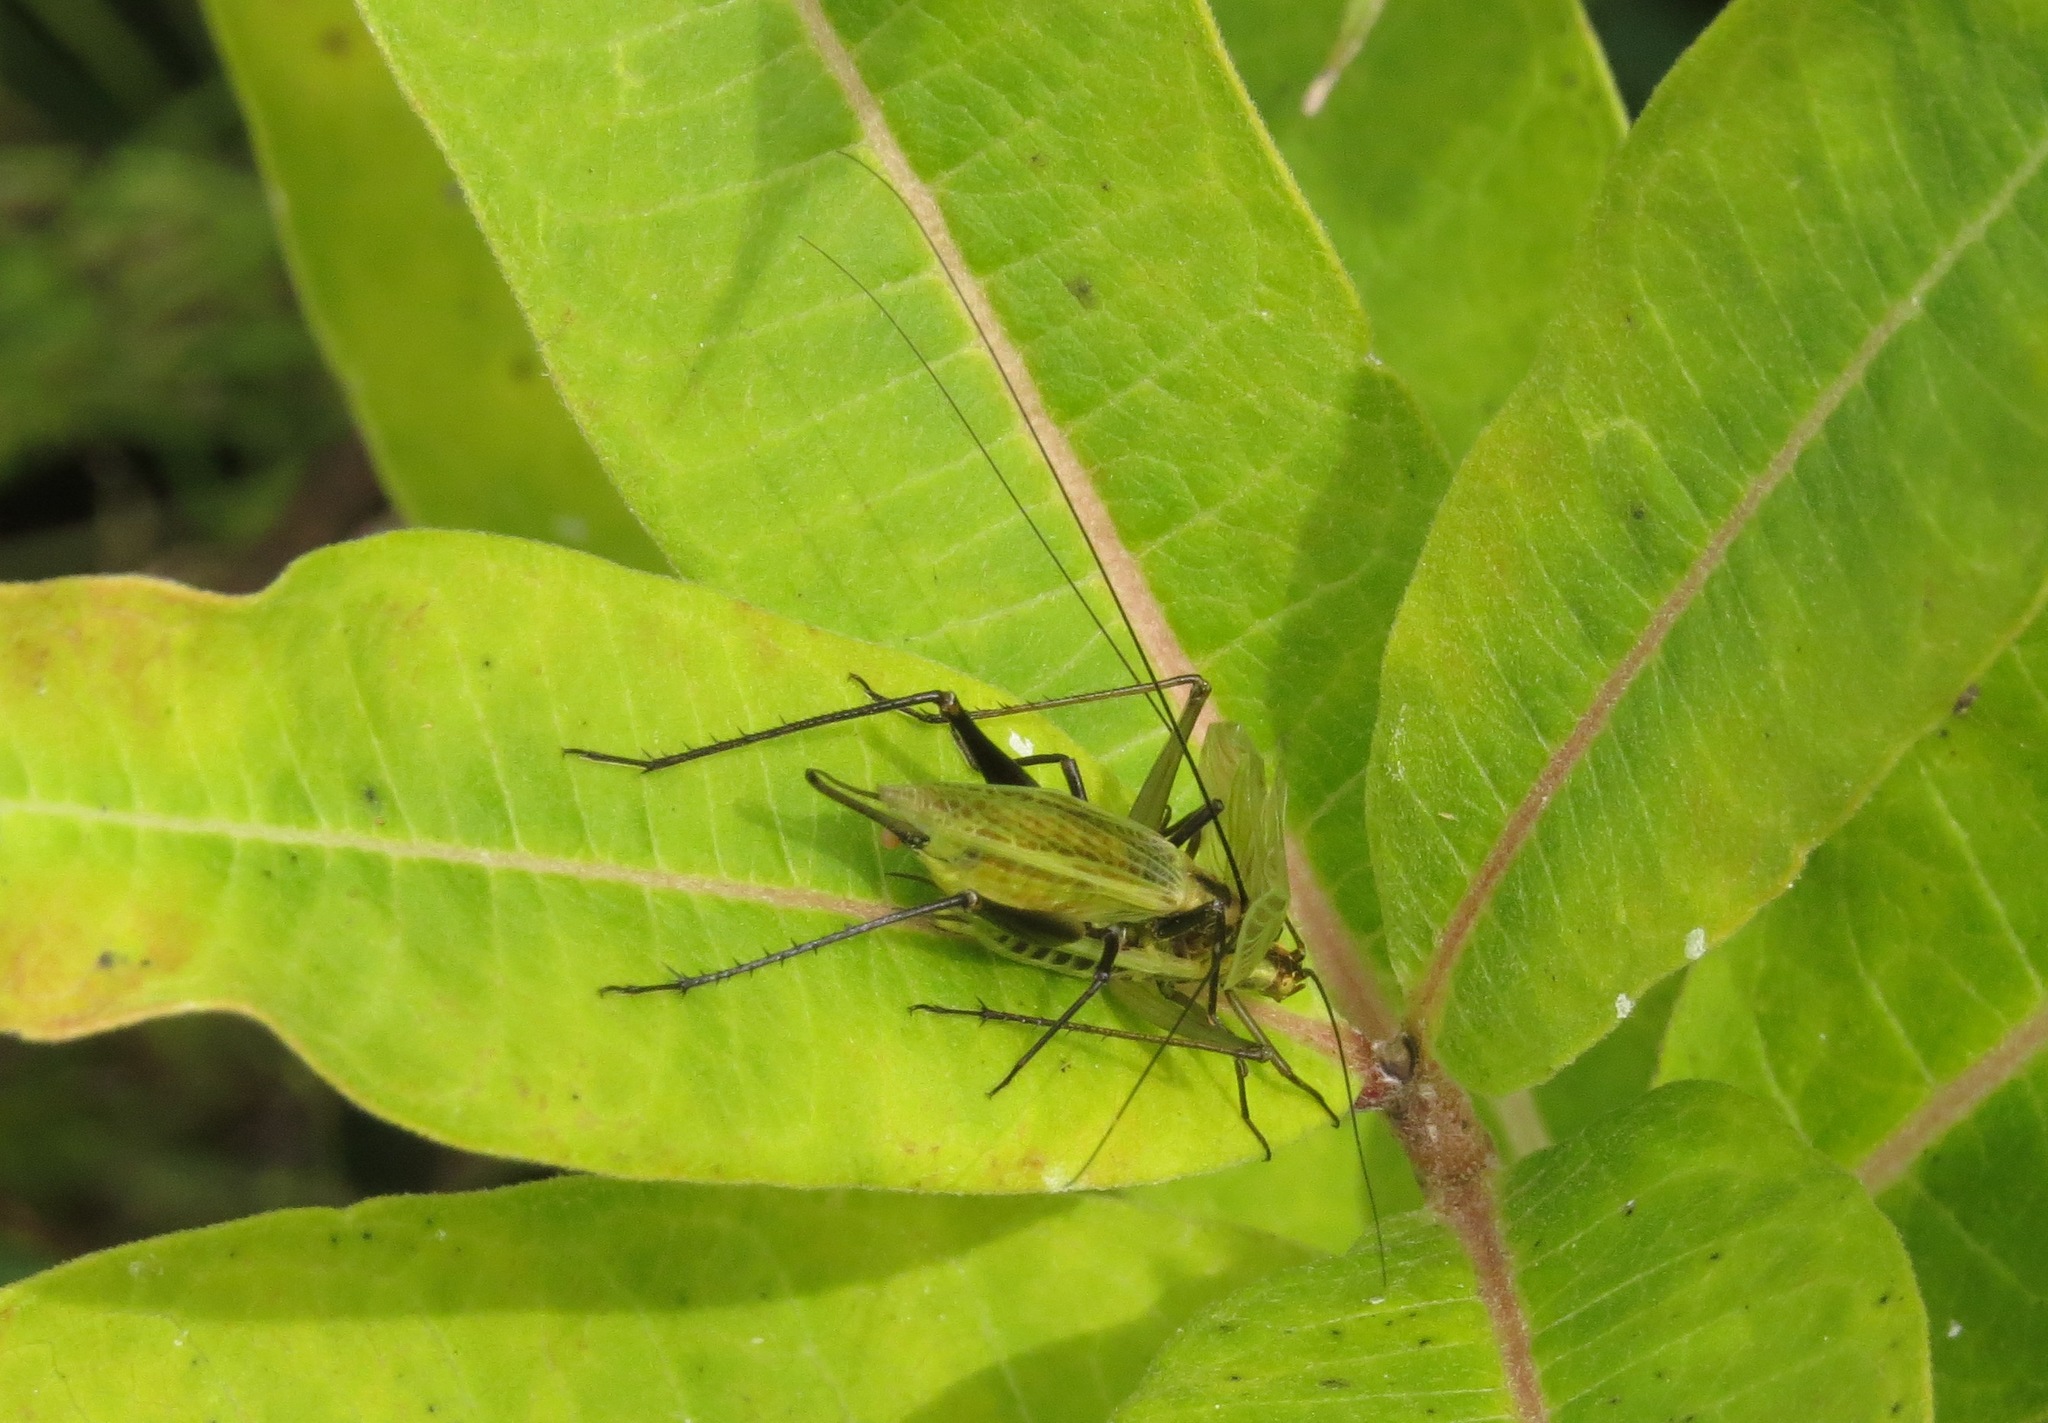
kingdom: Animalia
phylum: Arthropoda
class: Insecta
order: Orthoptera
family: Gryllidae
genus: Oecanthus
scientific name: Oecanthus nigricornis
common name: Black-horned tree cricket
